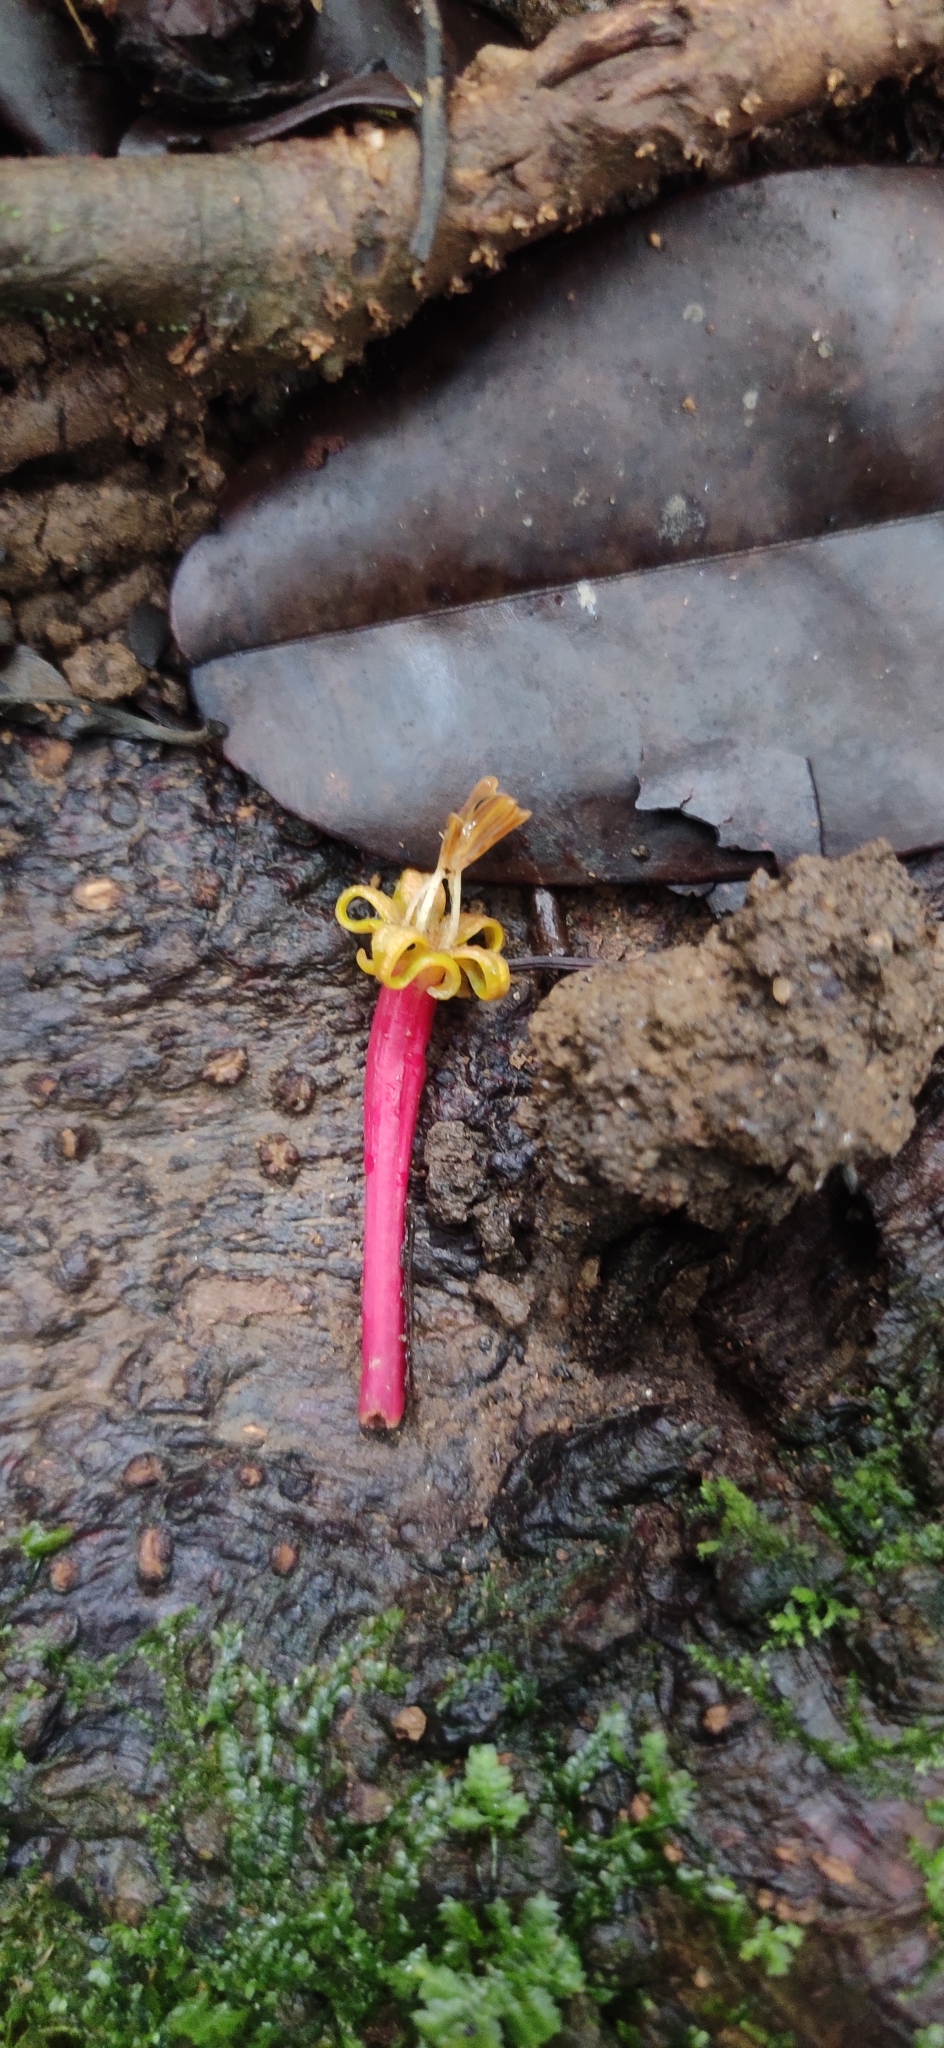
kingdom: Plantae
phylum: Tracheophyta
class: Magnoliopsida
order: Santalales
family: Loranthaceae
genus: Dendrophthoe
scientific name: Dendrophthoe falcata
